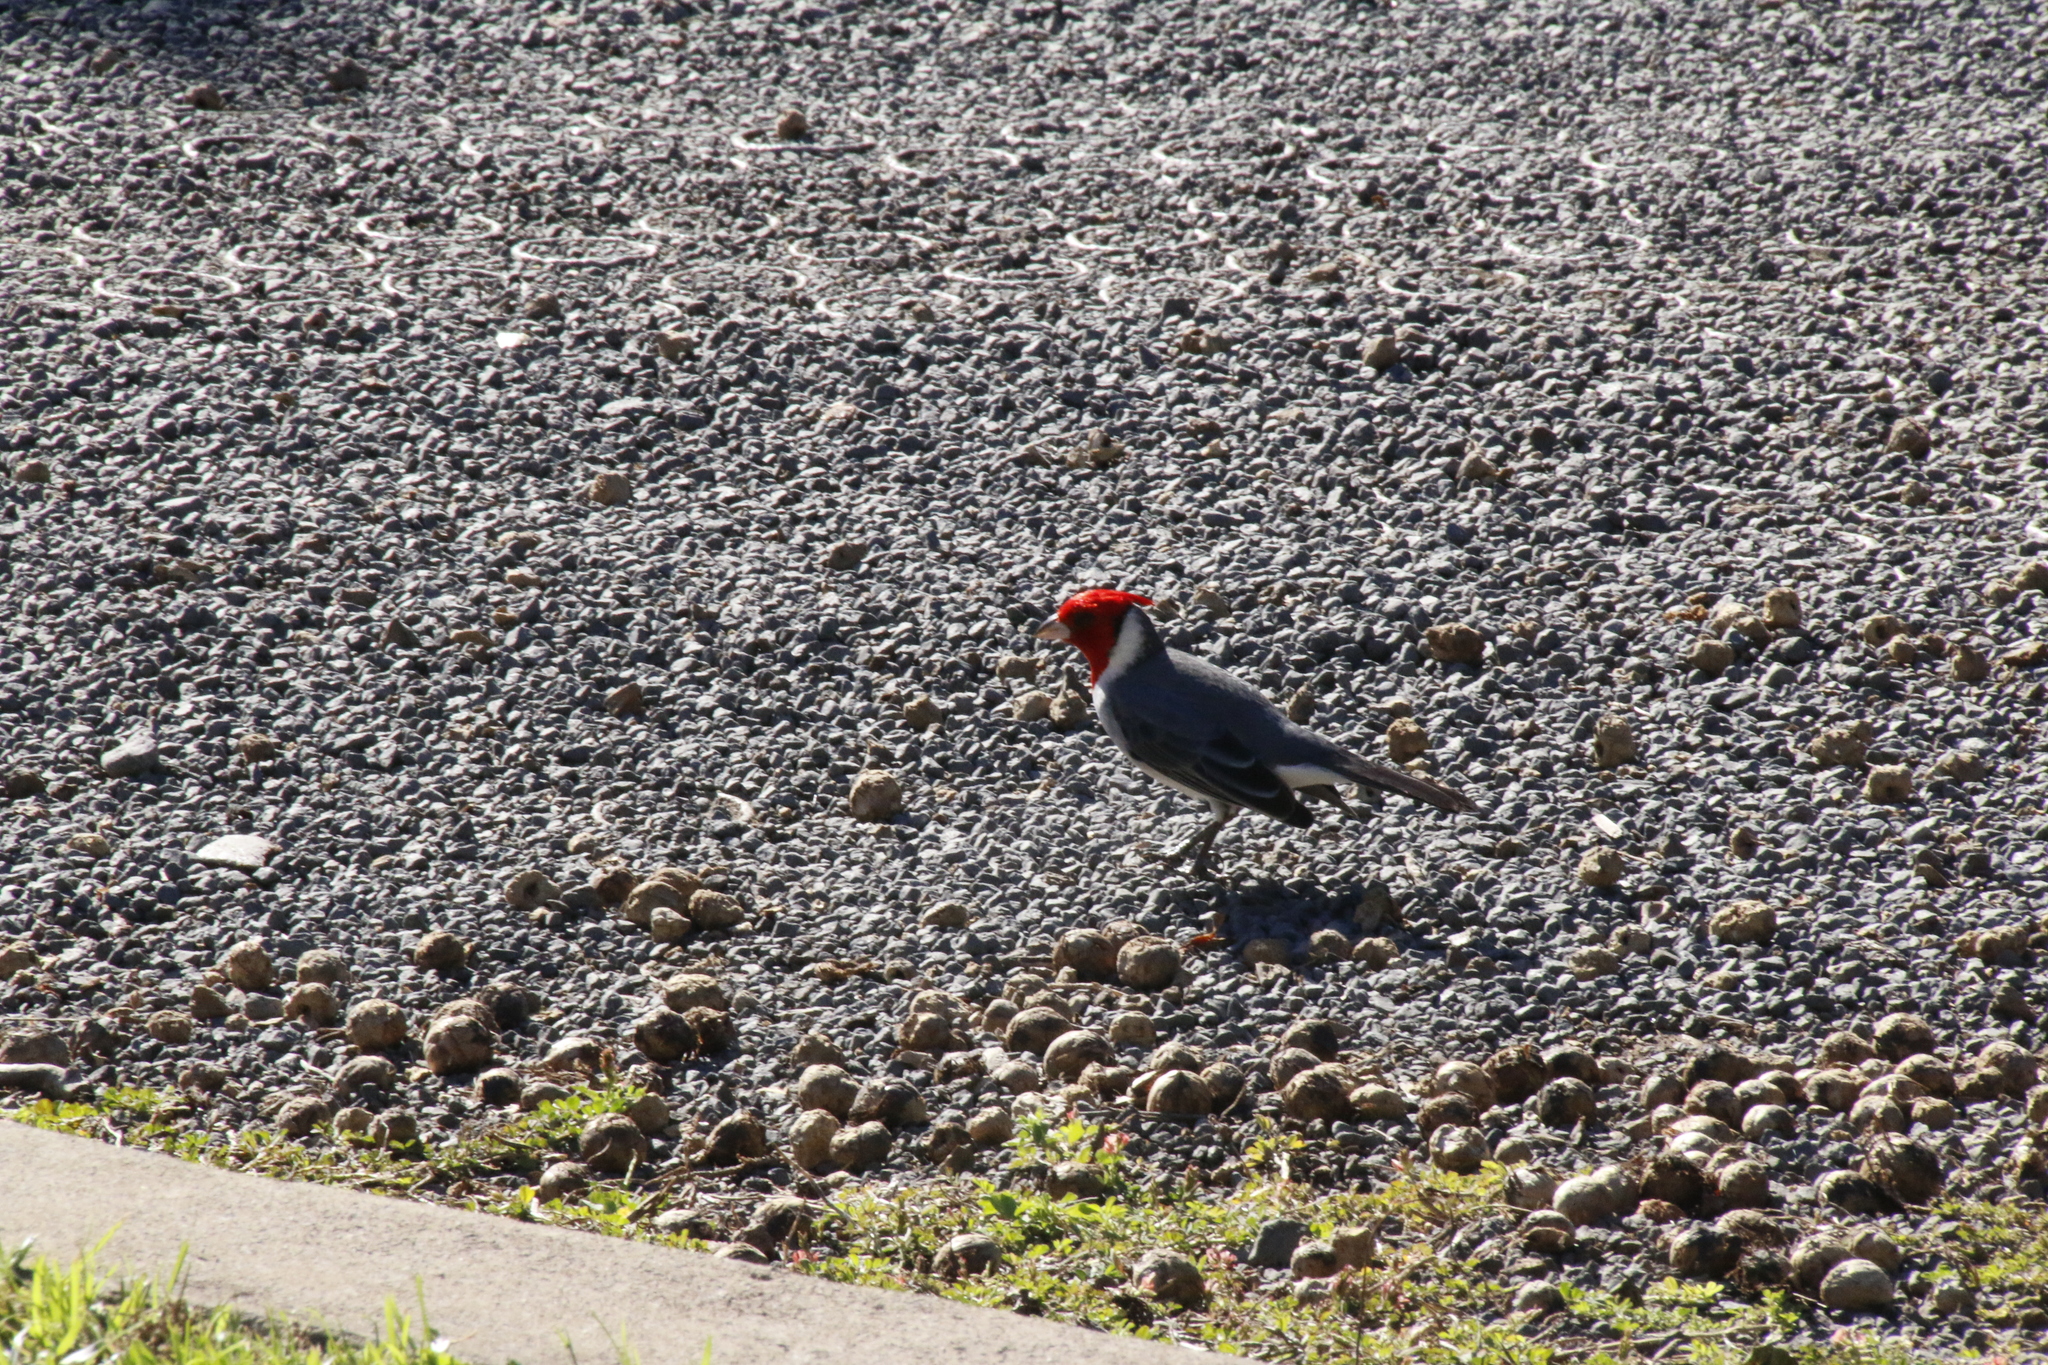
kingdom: Animalia
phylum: Chordata
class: Aves
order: Passeriformes
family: Thraupidae
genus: Paroaria
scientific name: Paroaria coronata
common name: Red-crested cardinal
